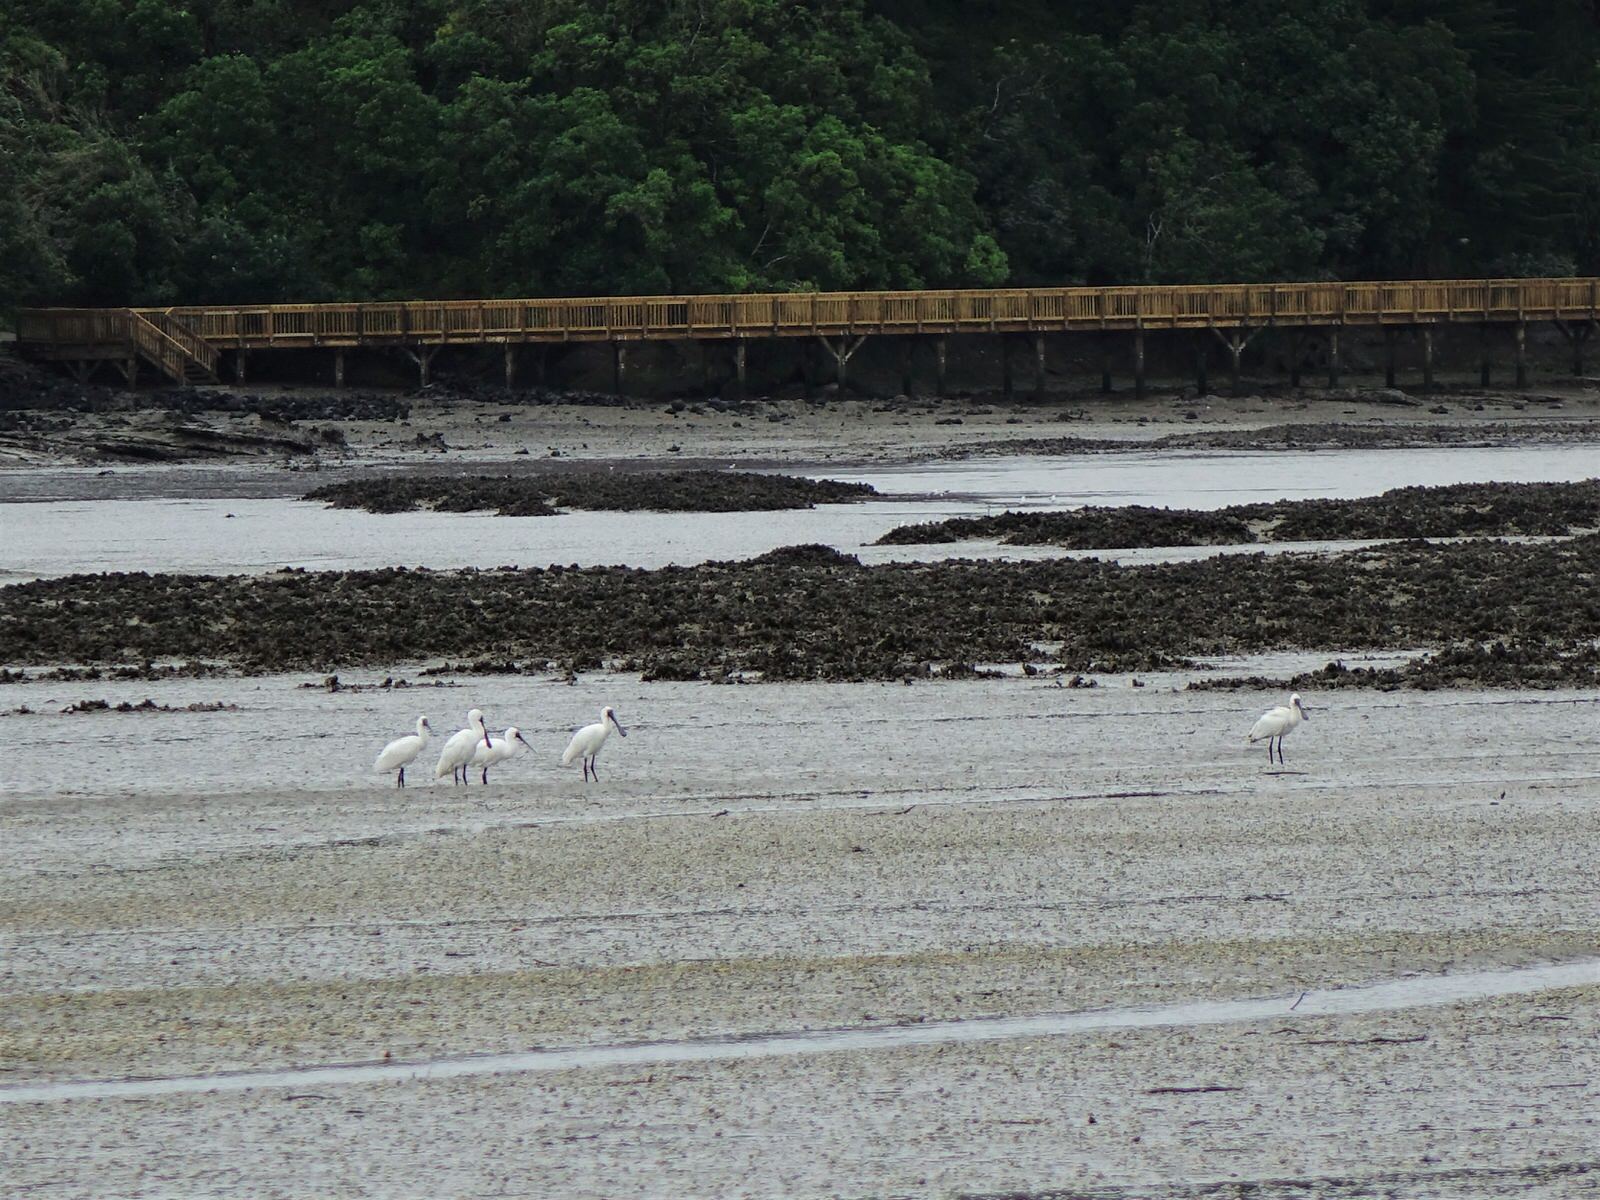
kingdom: Animalia
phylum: Chordata
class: Aves
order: Pelecaniformes
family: Threskiornithidae
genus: Platalea
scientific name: Platalea regia
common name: Royal spoonbill
